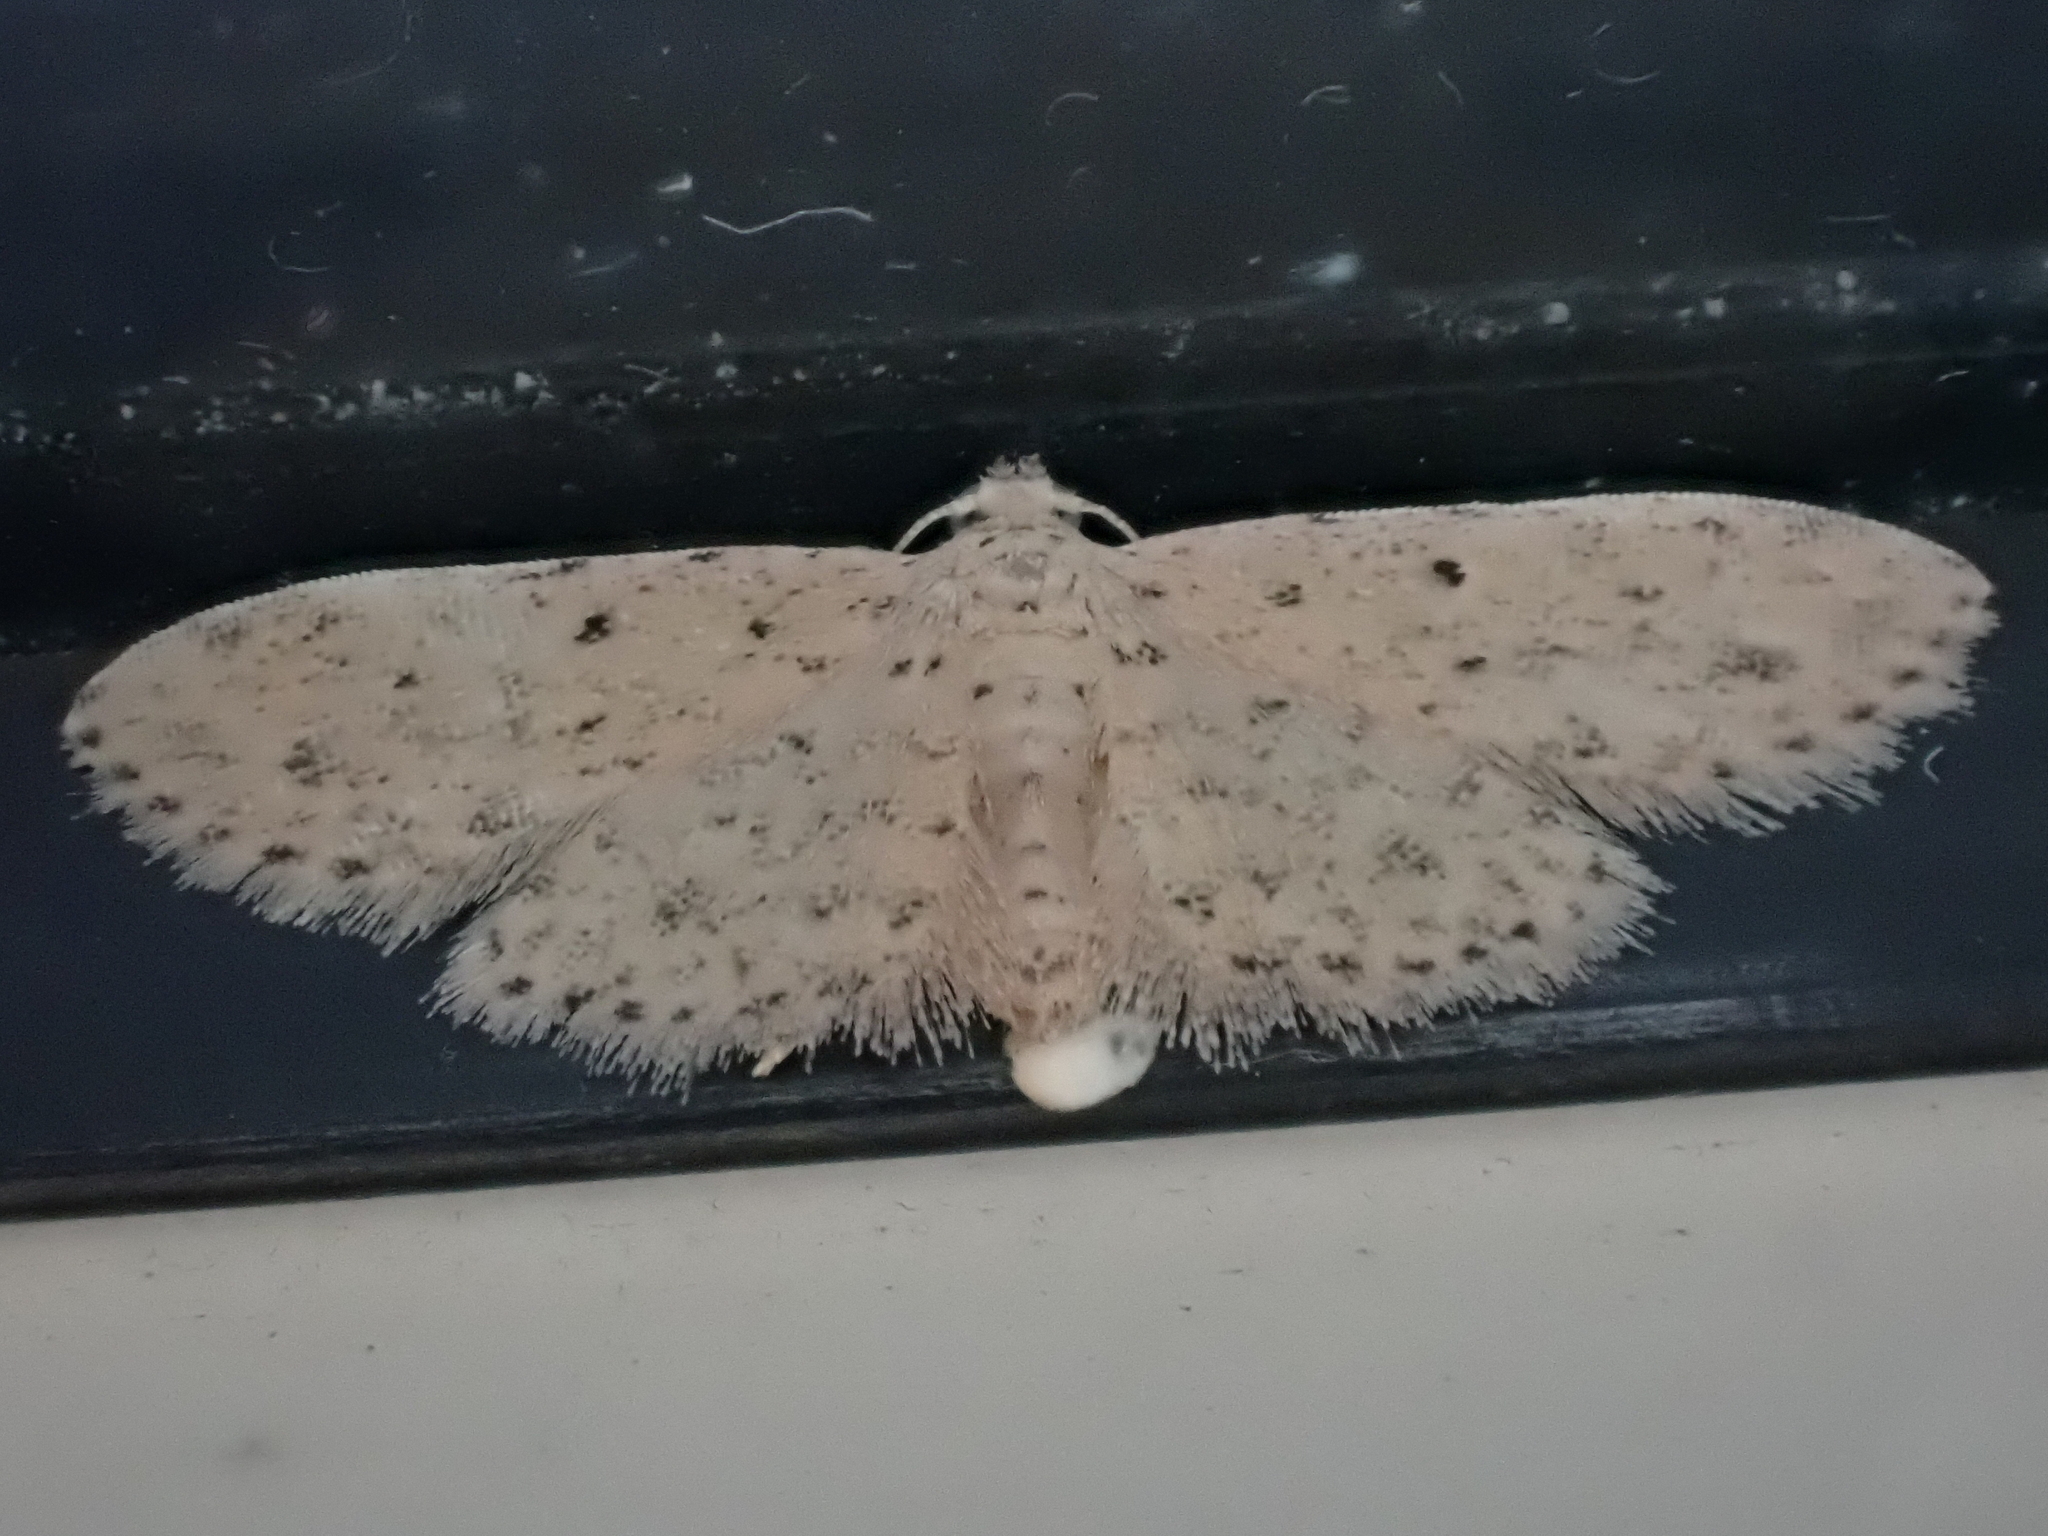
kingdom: Animalia
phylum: Arthropoda
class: Insecta
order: Lepidoptera
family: Erebidae
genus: Sigela
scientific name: Sigela lynx
